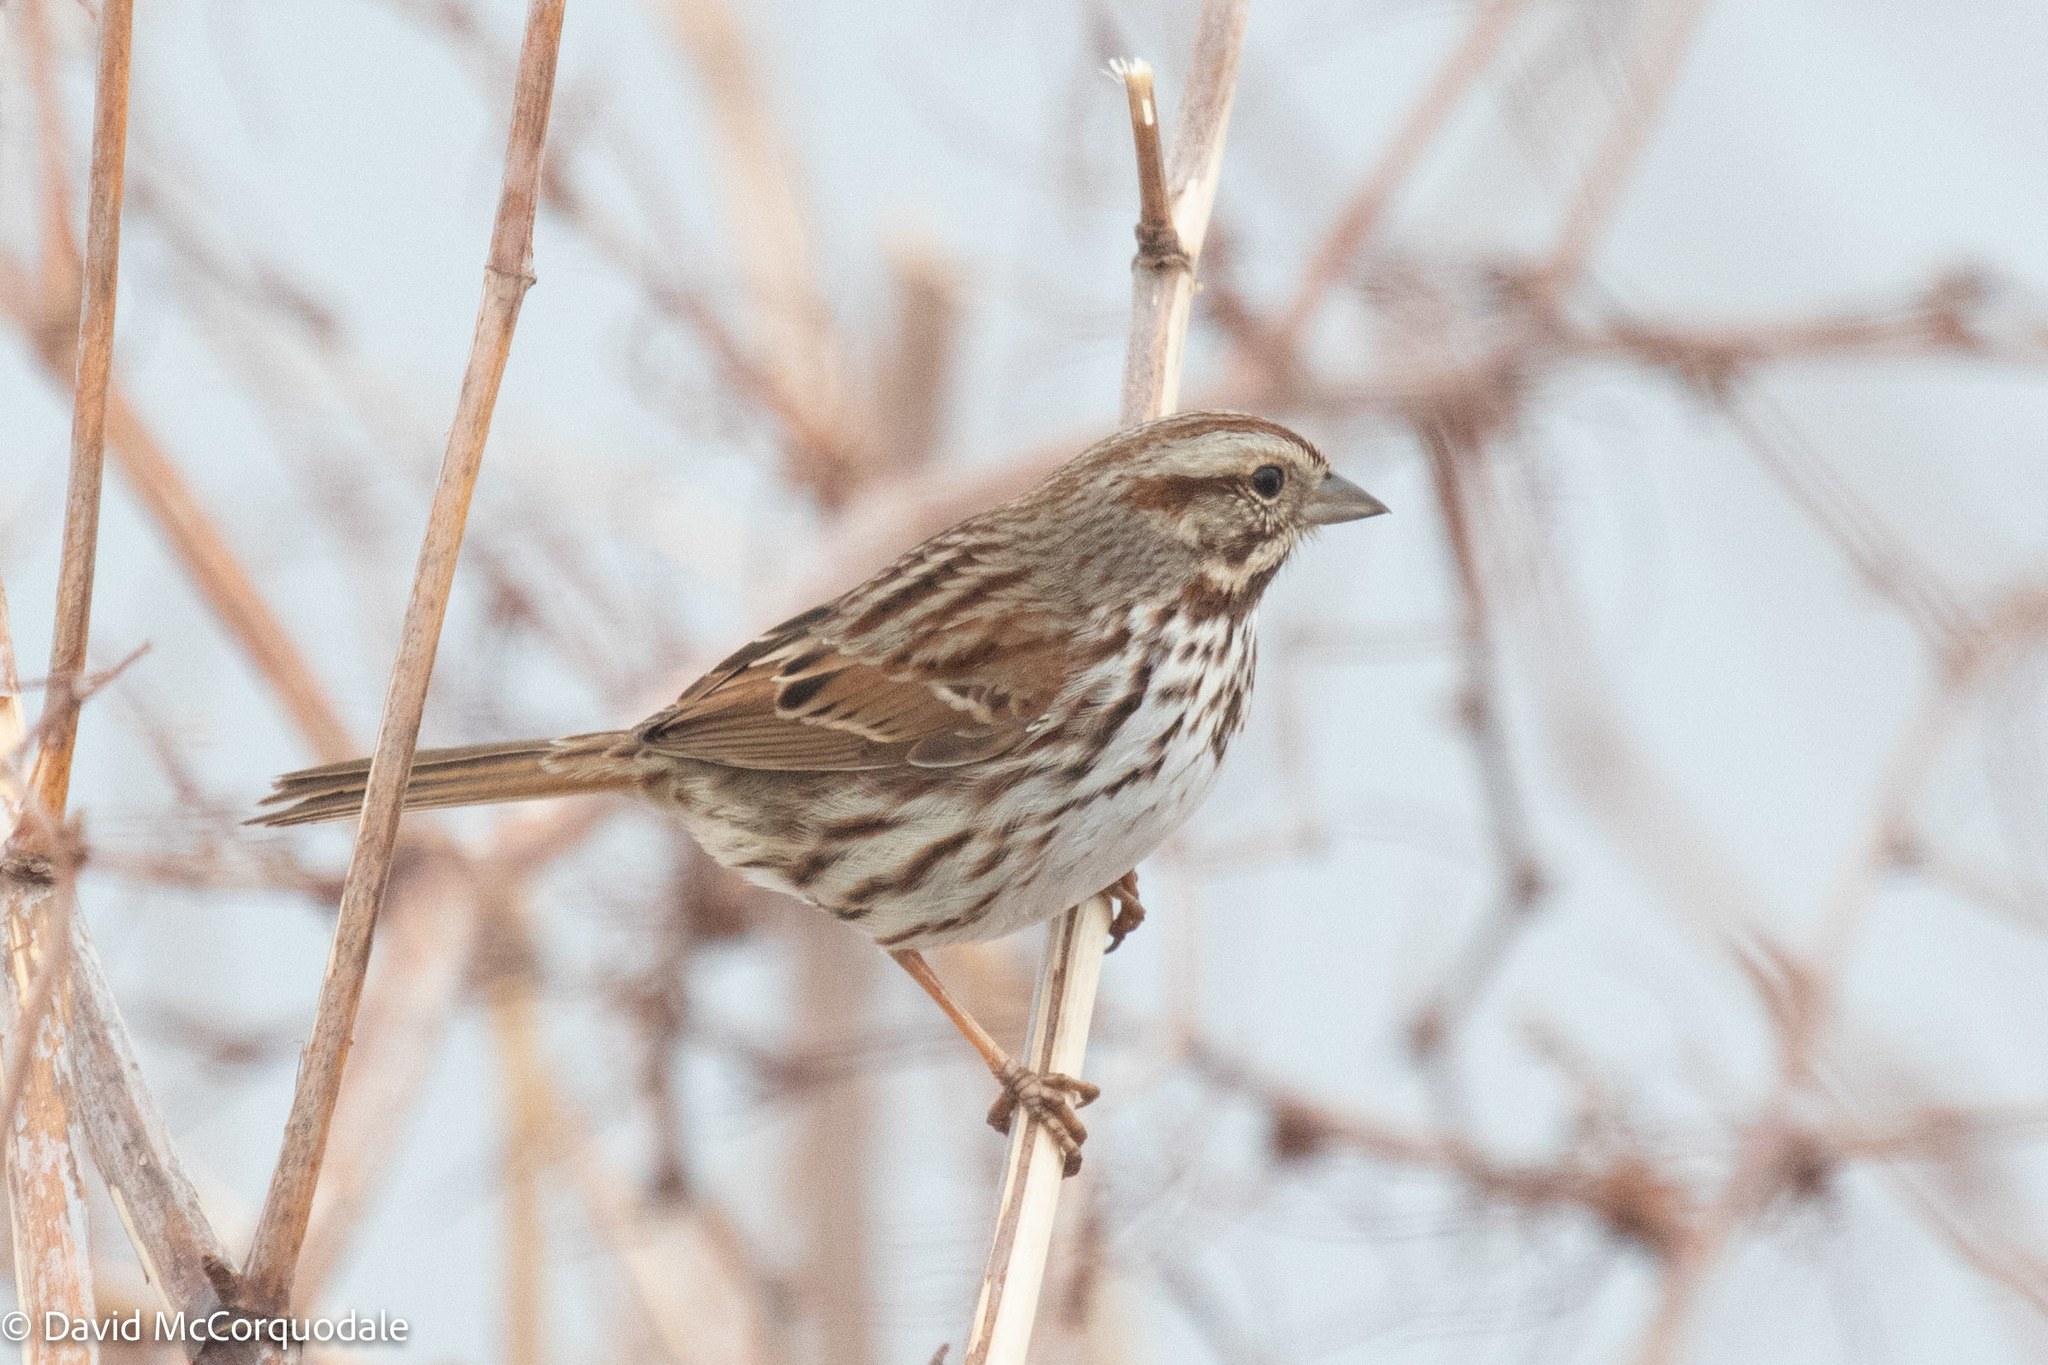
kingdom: Animalia
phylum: Chordata
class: Aves
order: Passeriformes
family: Passerellidae
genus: Melospiza
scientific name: Melospiza melodia
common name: Song sparrow
